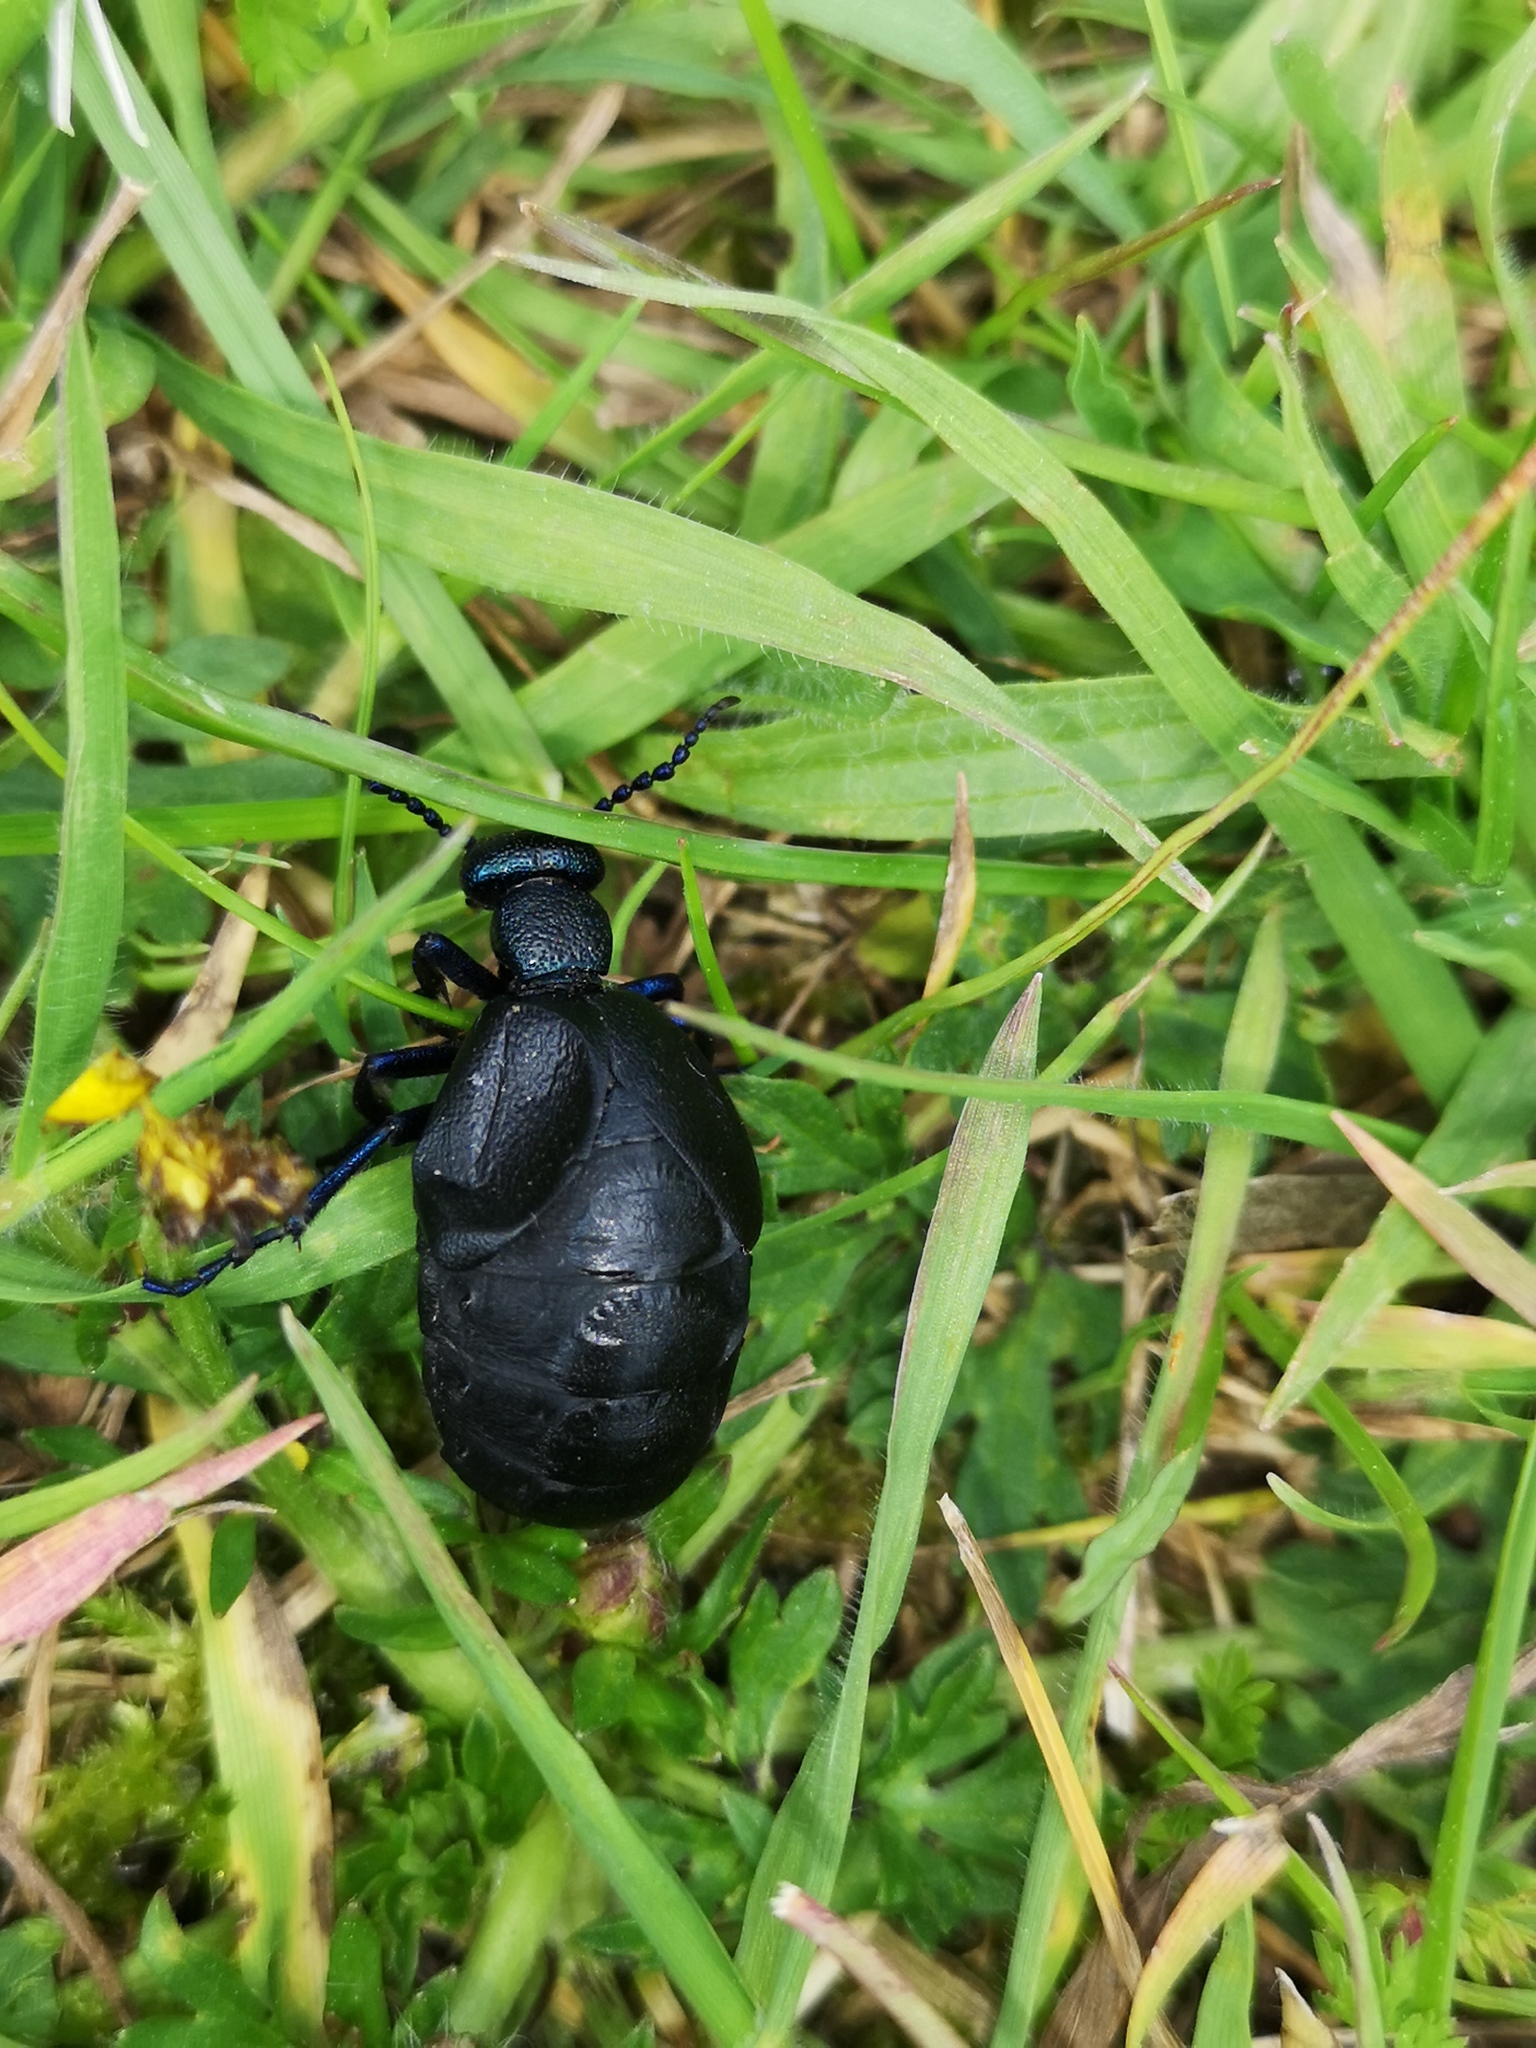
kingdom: Animalia
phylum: Arthropoda
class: Insecta
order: Coleoptera
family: Meloidae
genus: Meloe
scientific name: Meloe proscarabaeus
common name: Black oil-beetle
